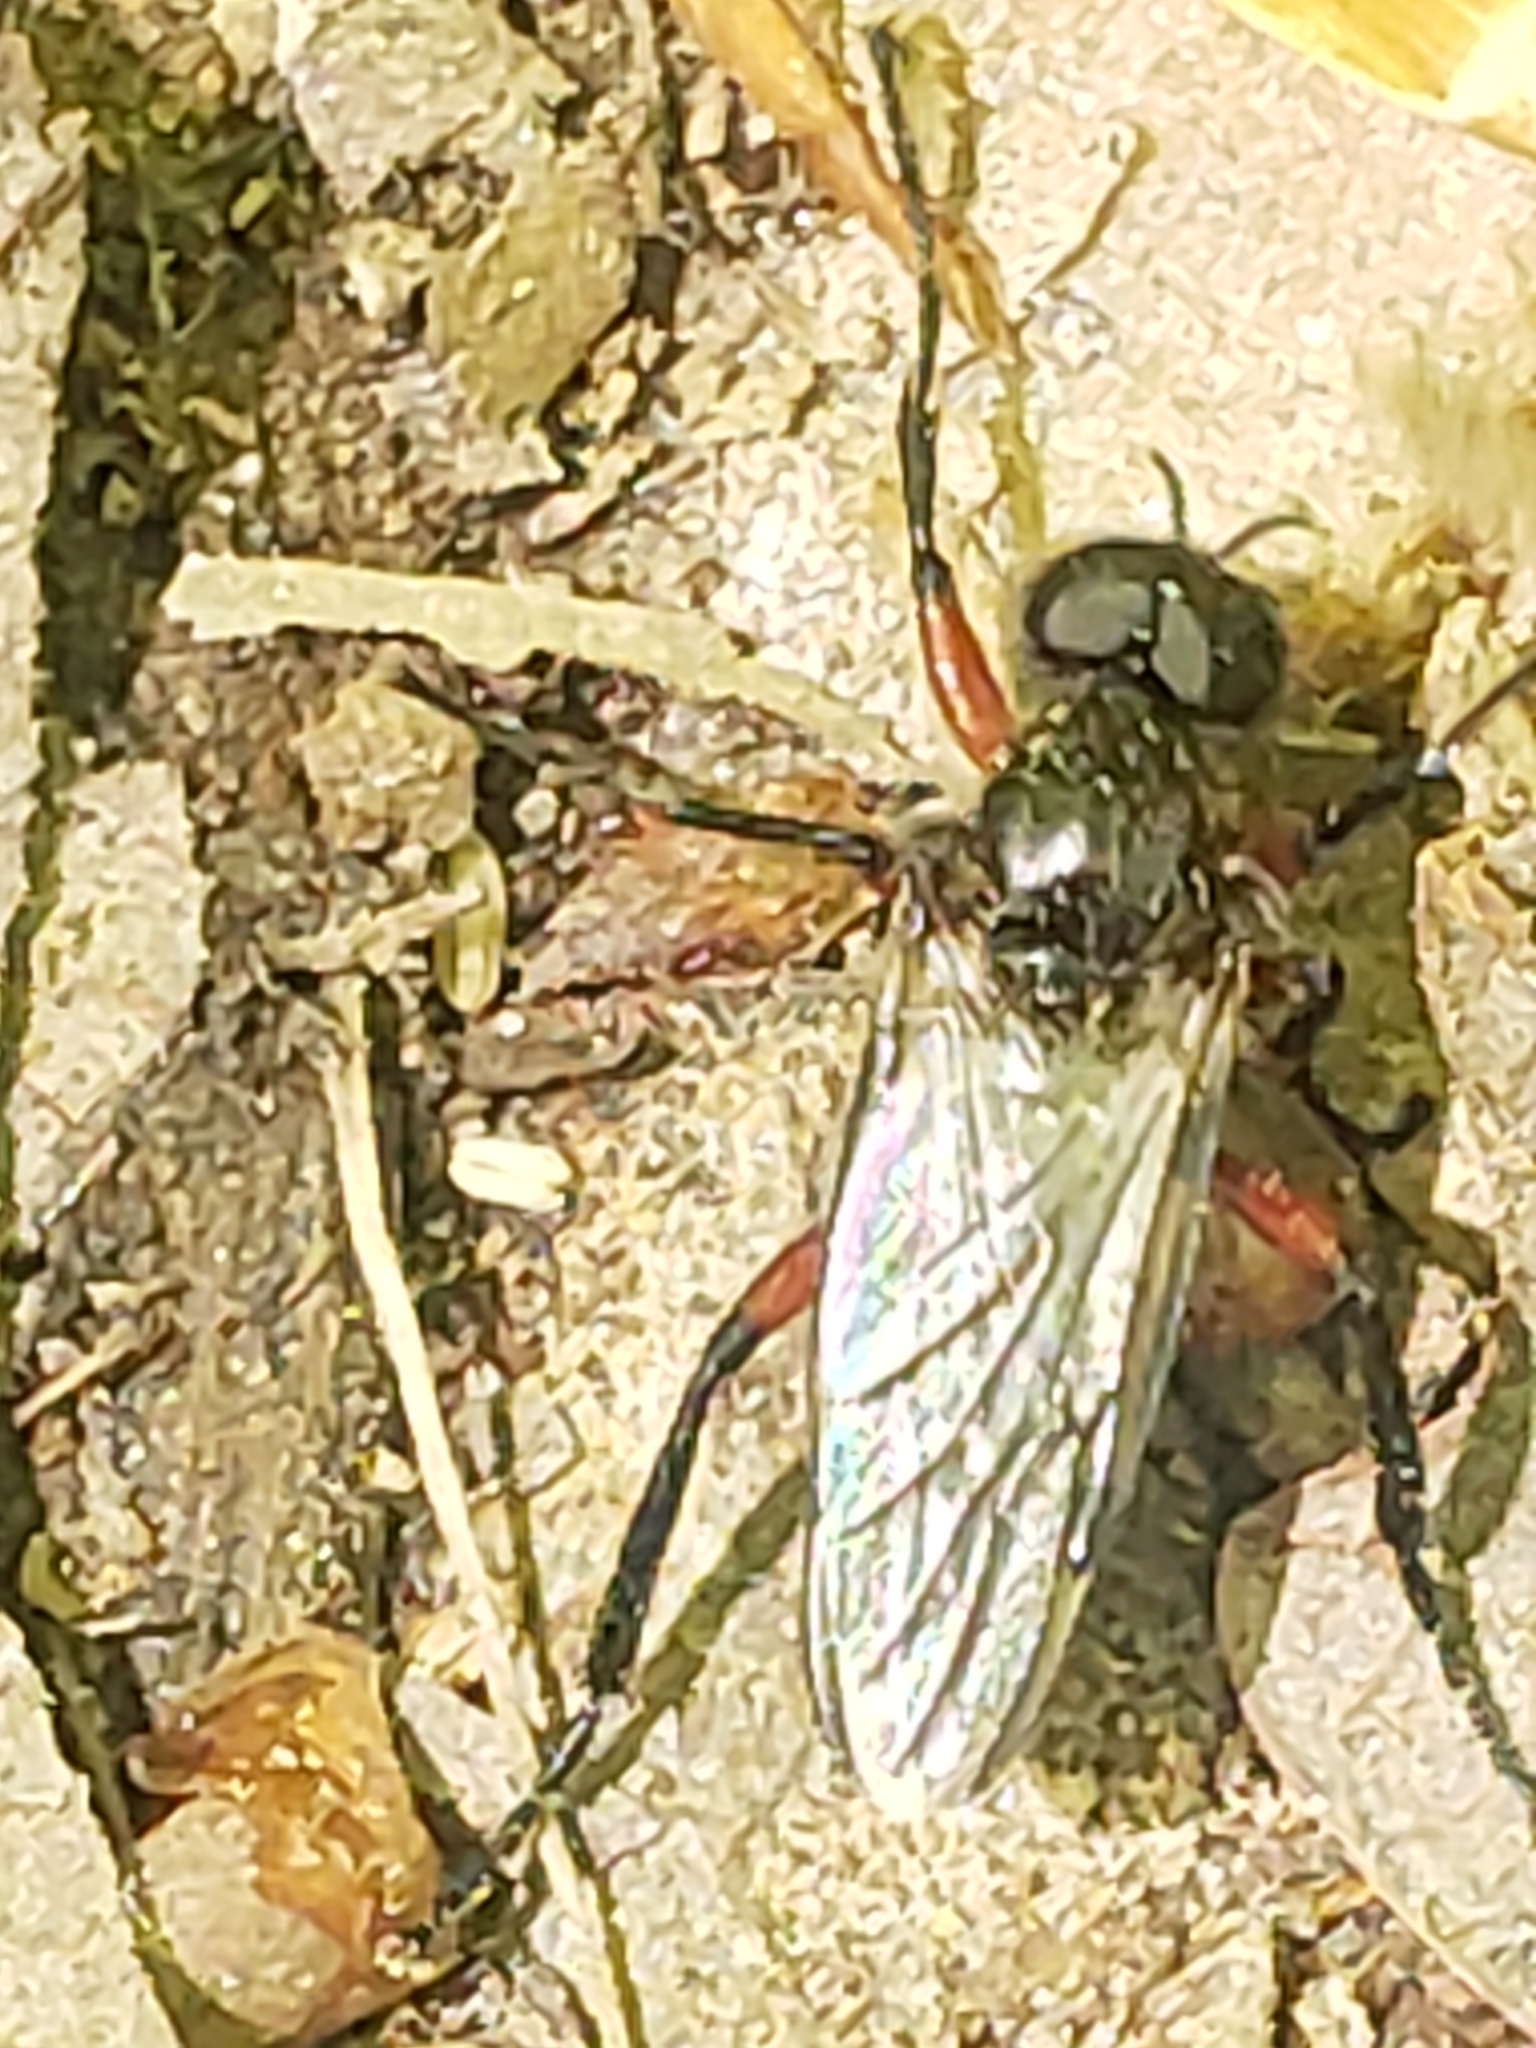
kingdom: Animalia
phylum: Arthropoda
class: Insecta
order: Diptera
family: Bibionidae
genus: Bibio
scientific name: Bibio femoratus
